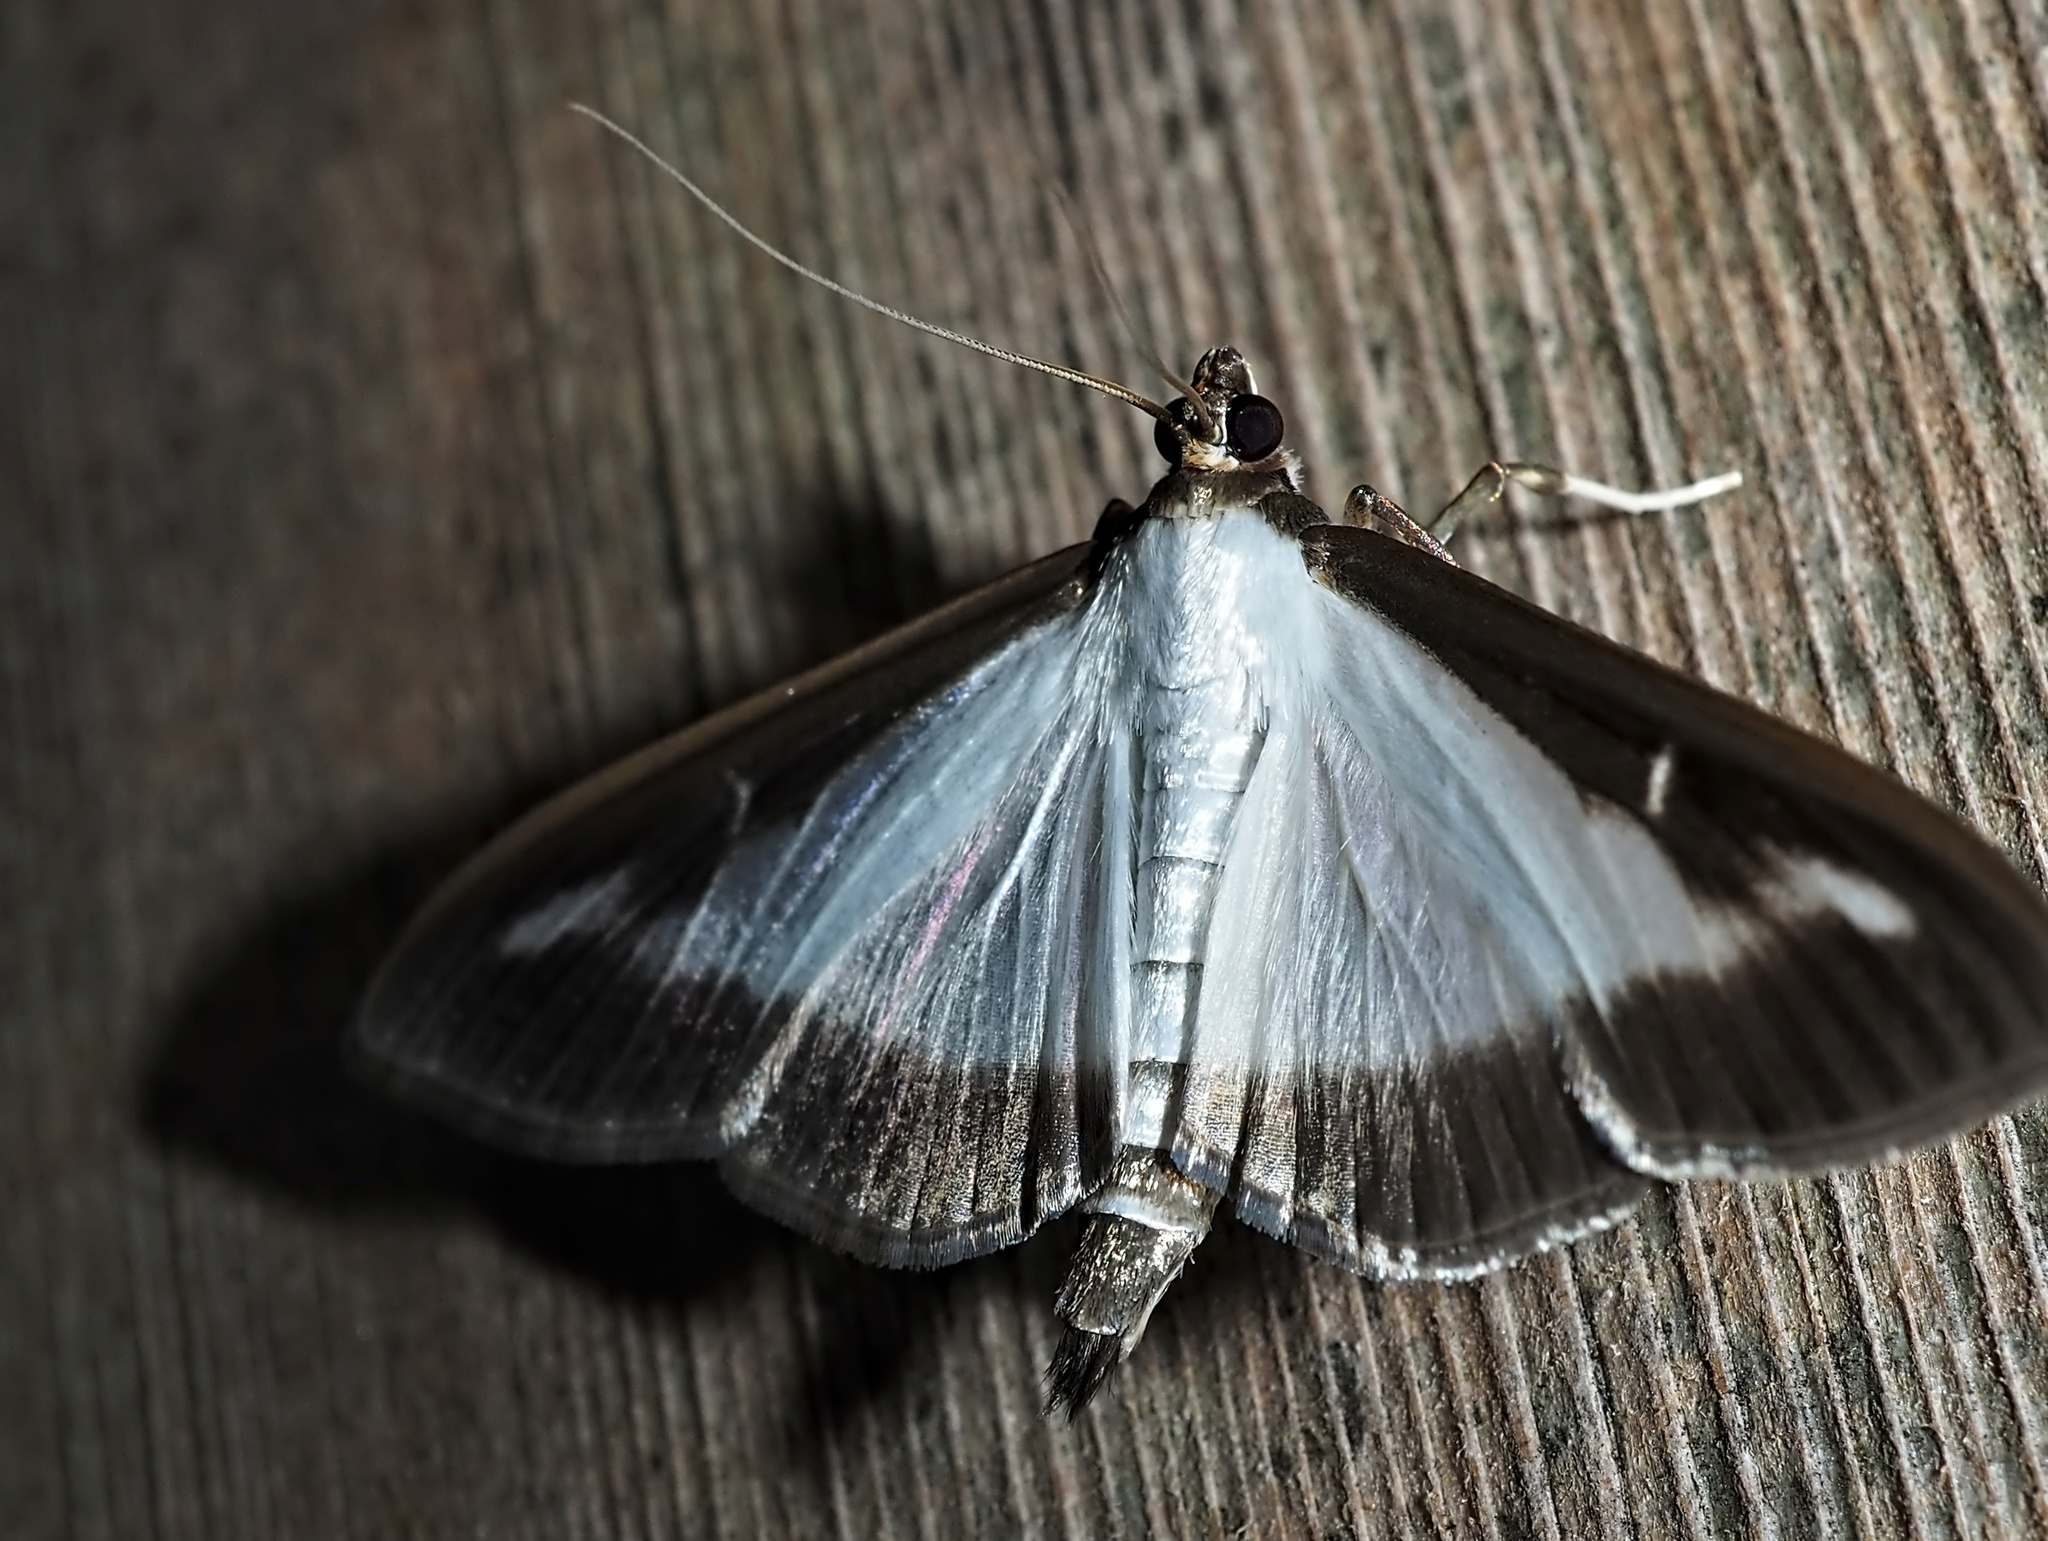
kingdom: Animalia
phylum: Arthropoda
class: Insecta
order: Lepidoptera
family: Crambidae
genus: Cydalima
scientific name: Cydalima perspectalis
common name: Box tree moth
